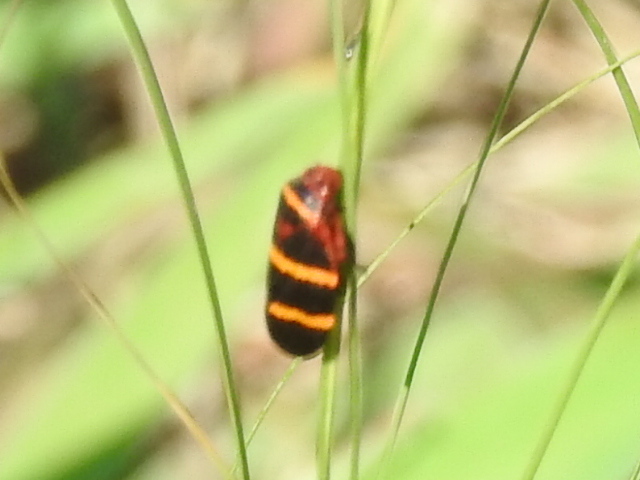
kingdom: Animalia
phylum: Arthropoda
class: Insecta
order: Hemiptera
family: Cercopidae
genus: Prosapia
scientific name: Prosapia bicincta
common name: Twolined spittlebug
